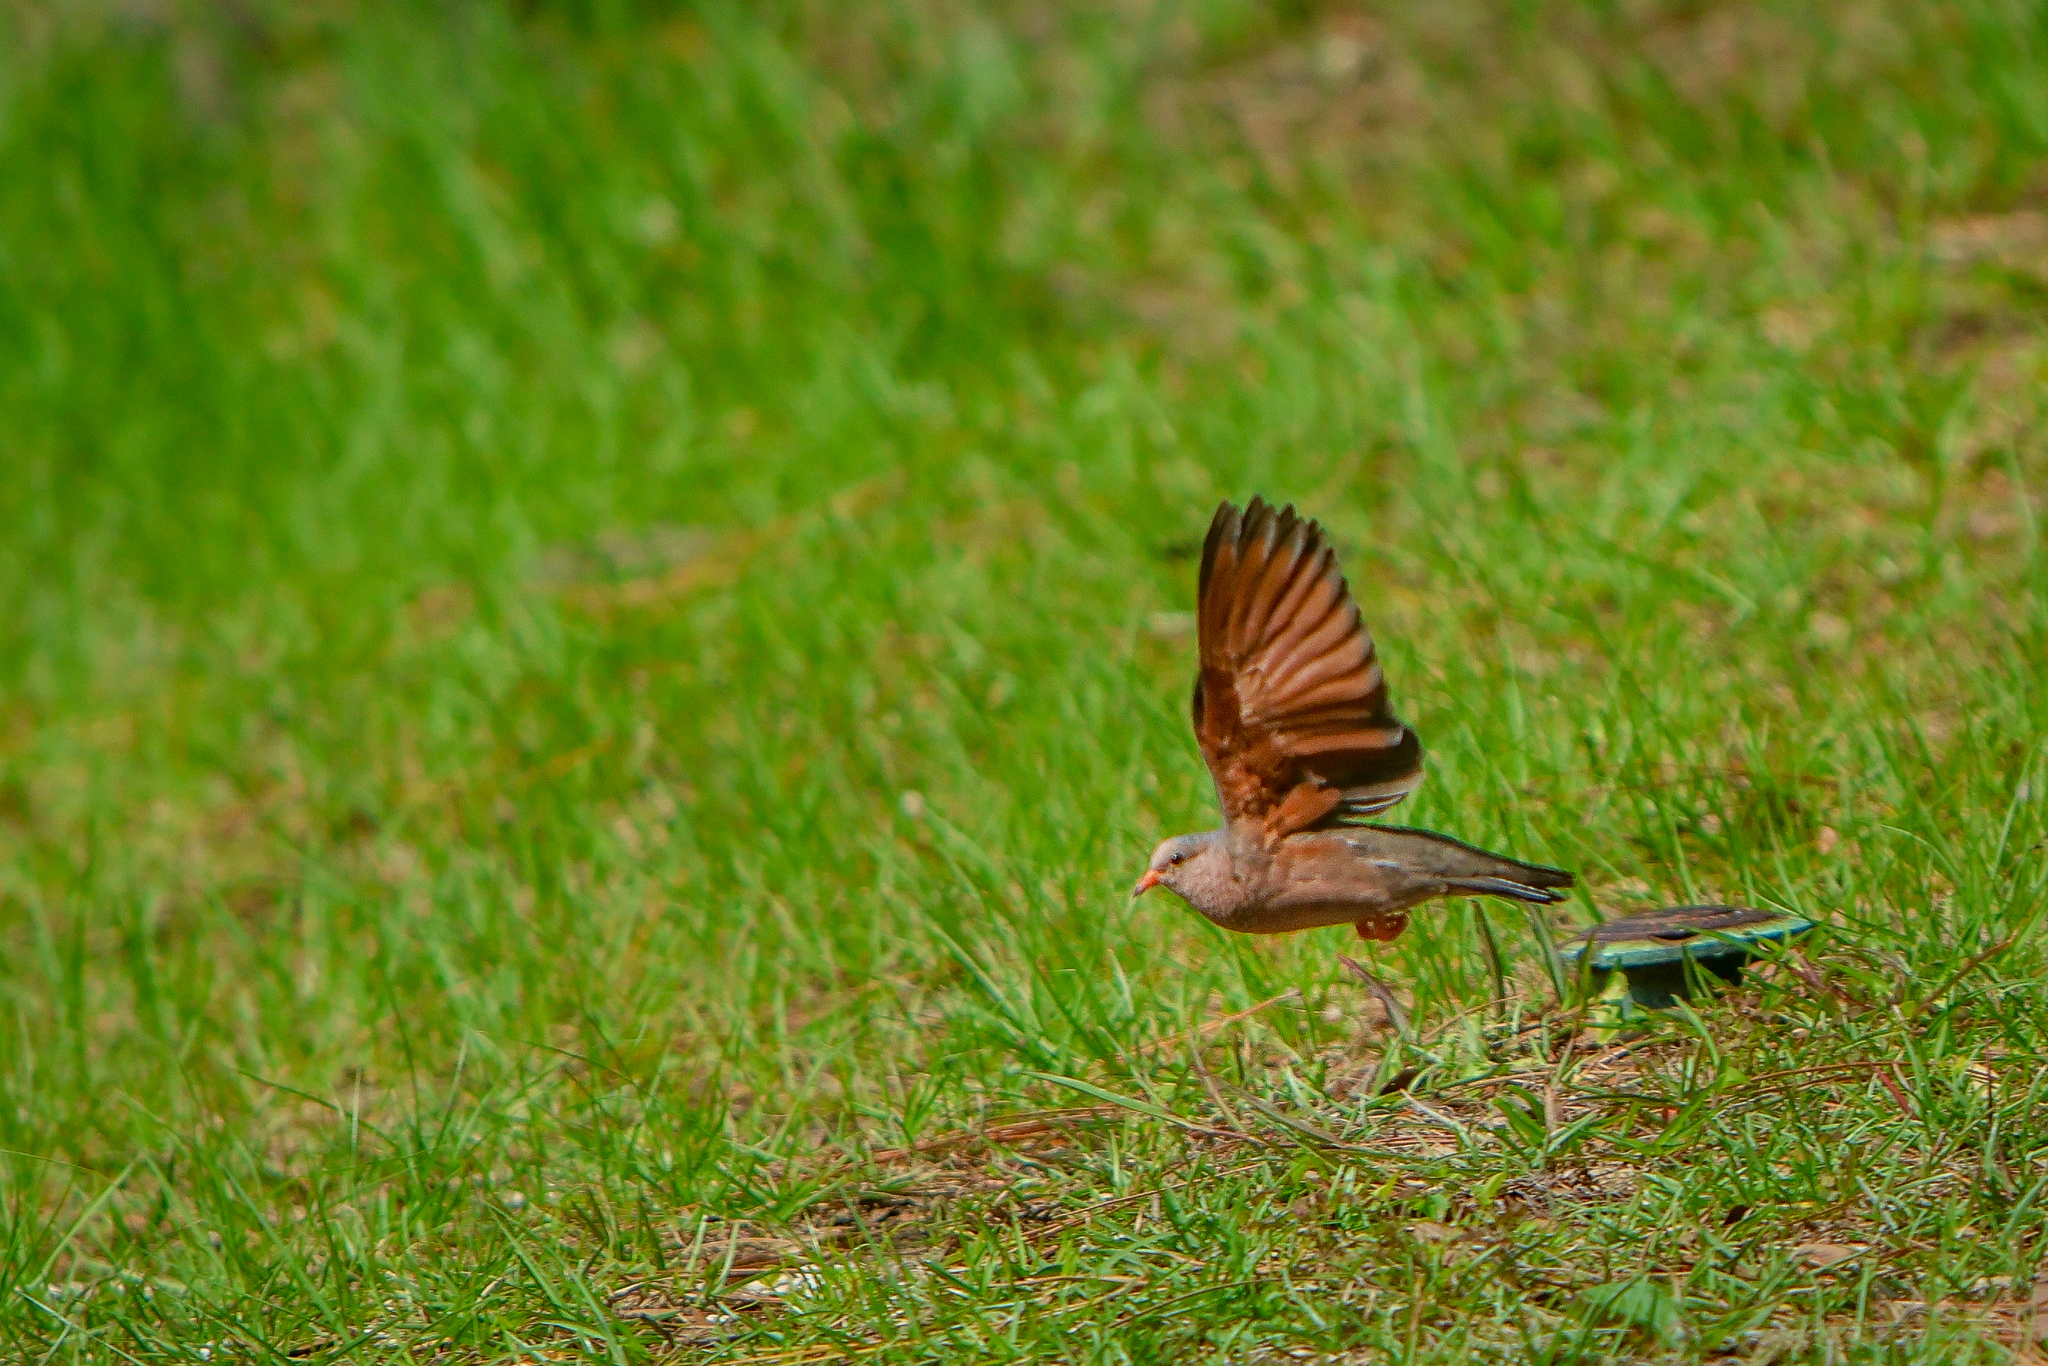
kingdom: Animalia
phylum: Chordata
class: Aves
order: Columbiformes
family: Columbidae
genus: Columbina
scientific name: Columbina passerina
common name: Common ground-dove
